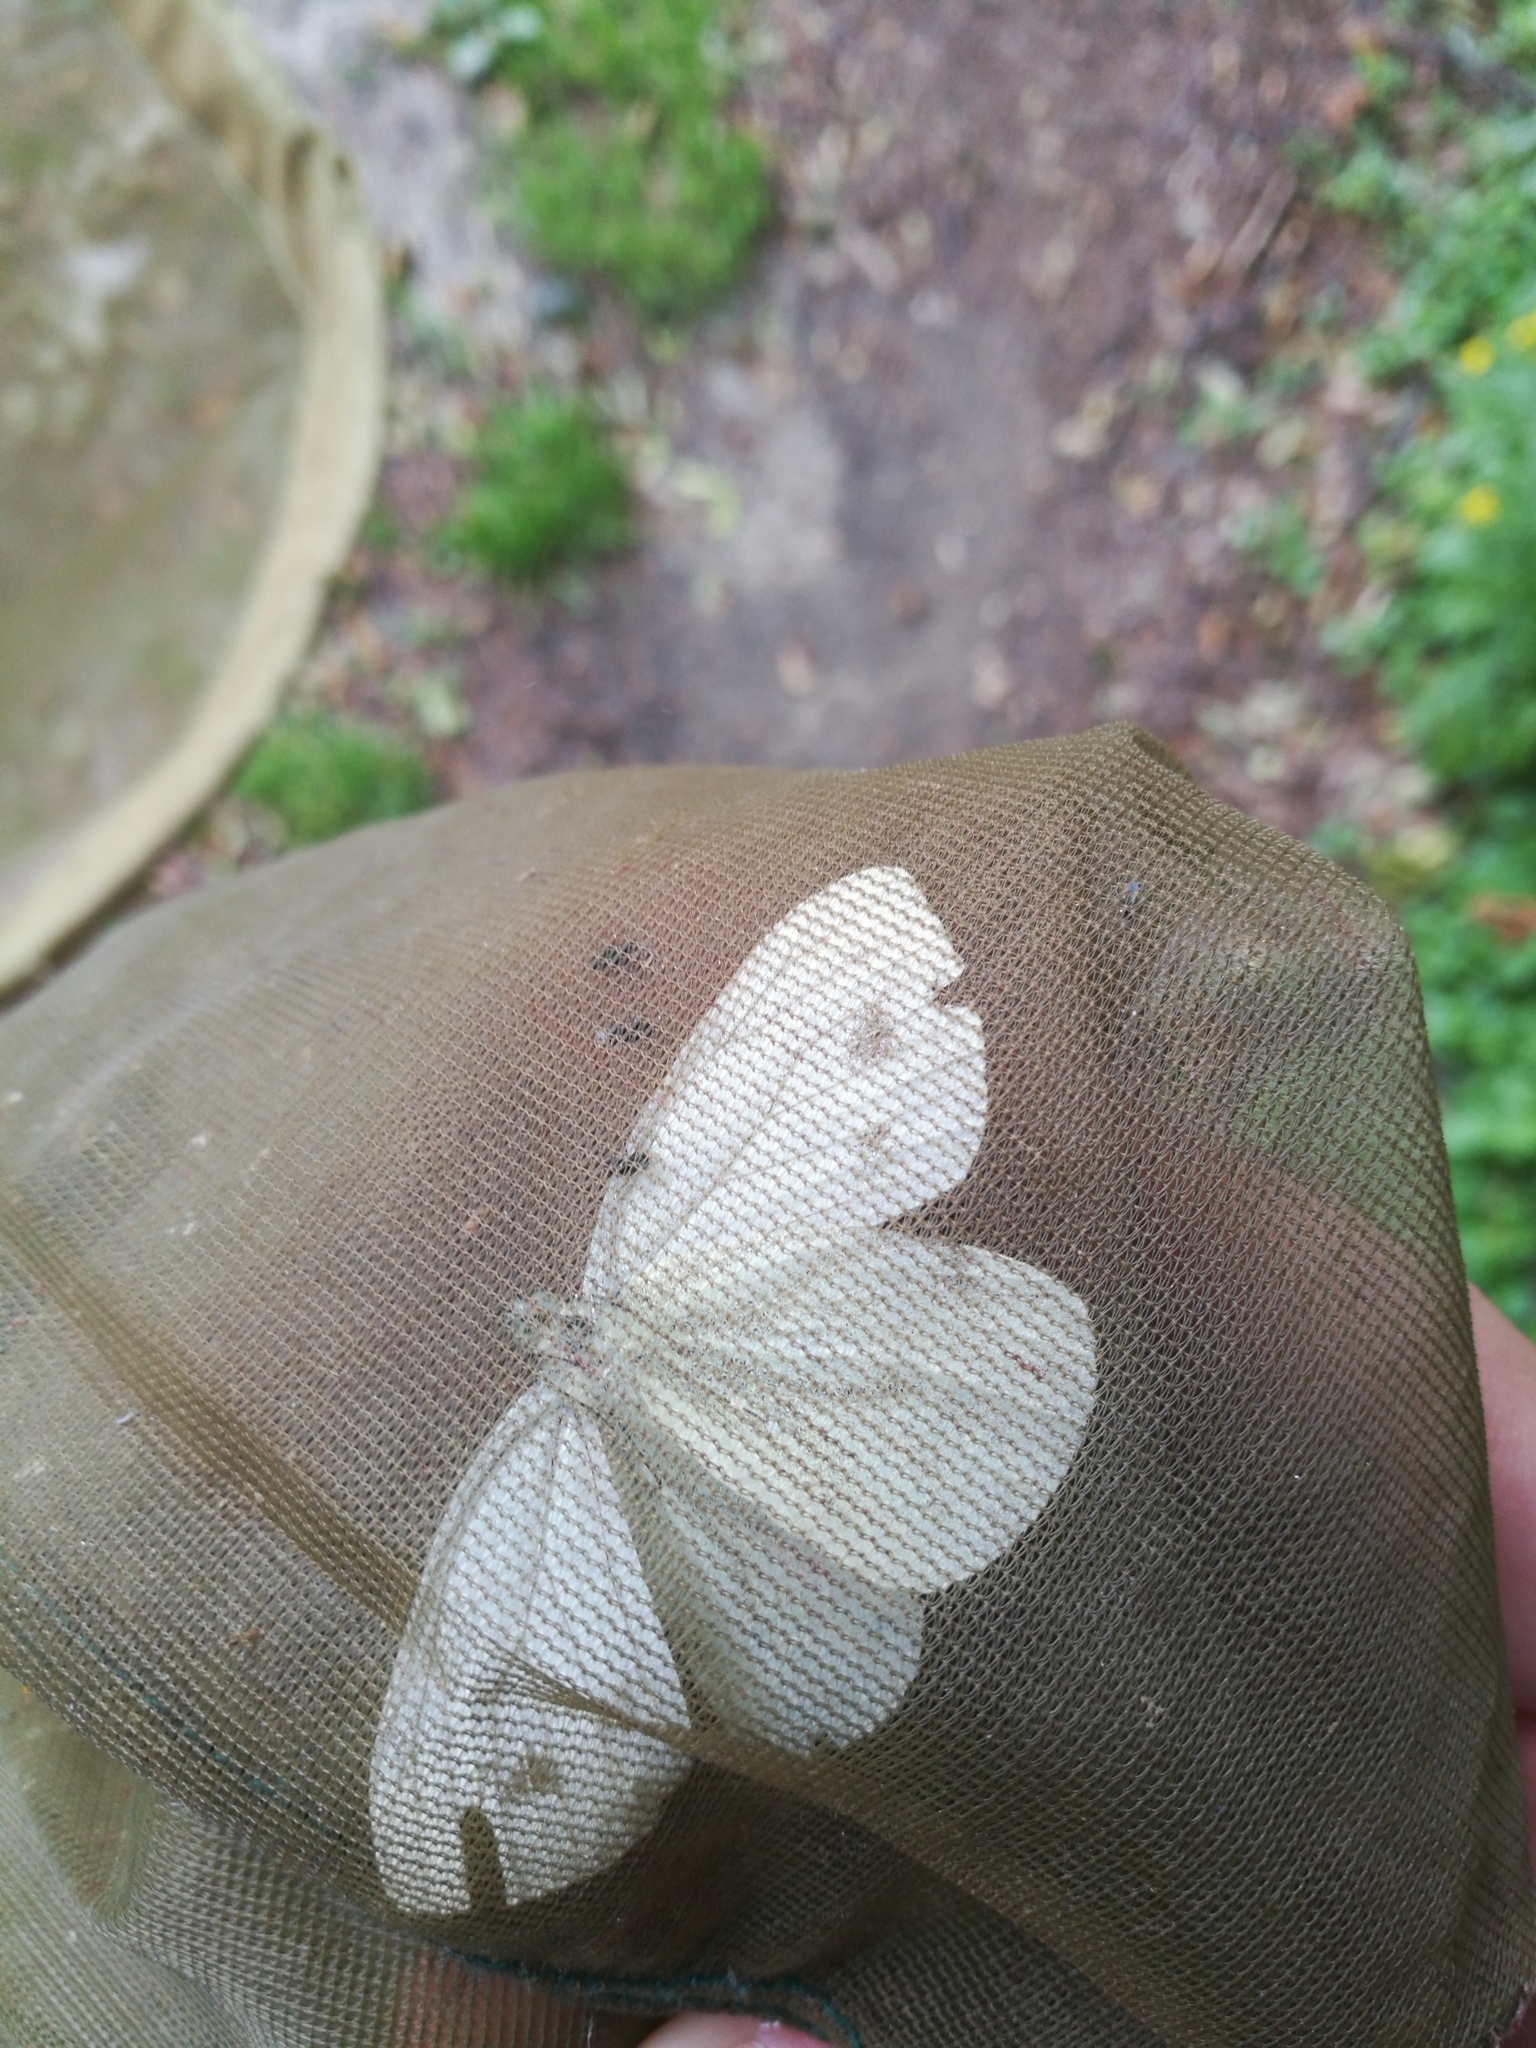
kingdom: Animalia
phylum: Arthropoda
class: Insecta
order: Lepidoptera
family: Pieridae
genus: Pieris
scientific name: Pieris napi
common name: Green-veined white
